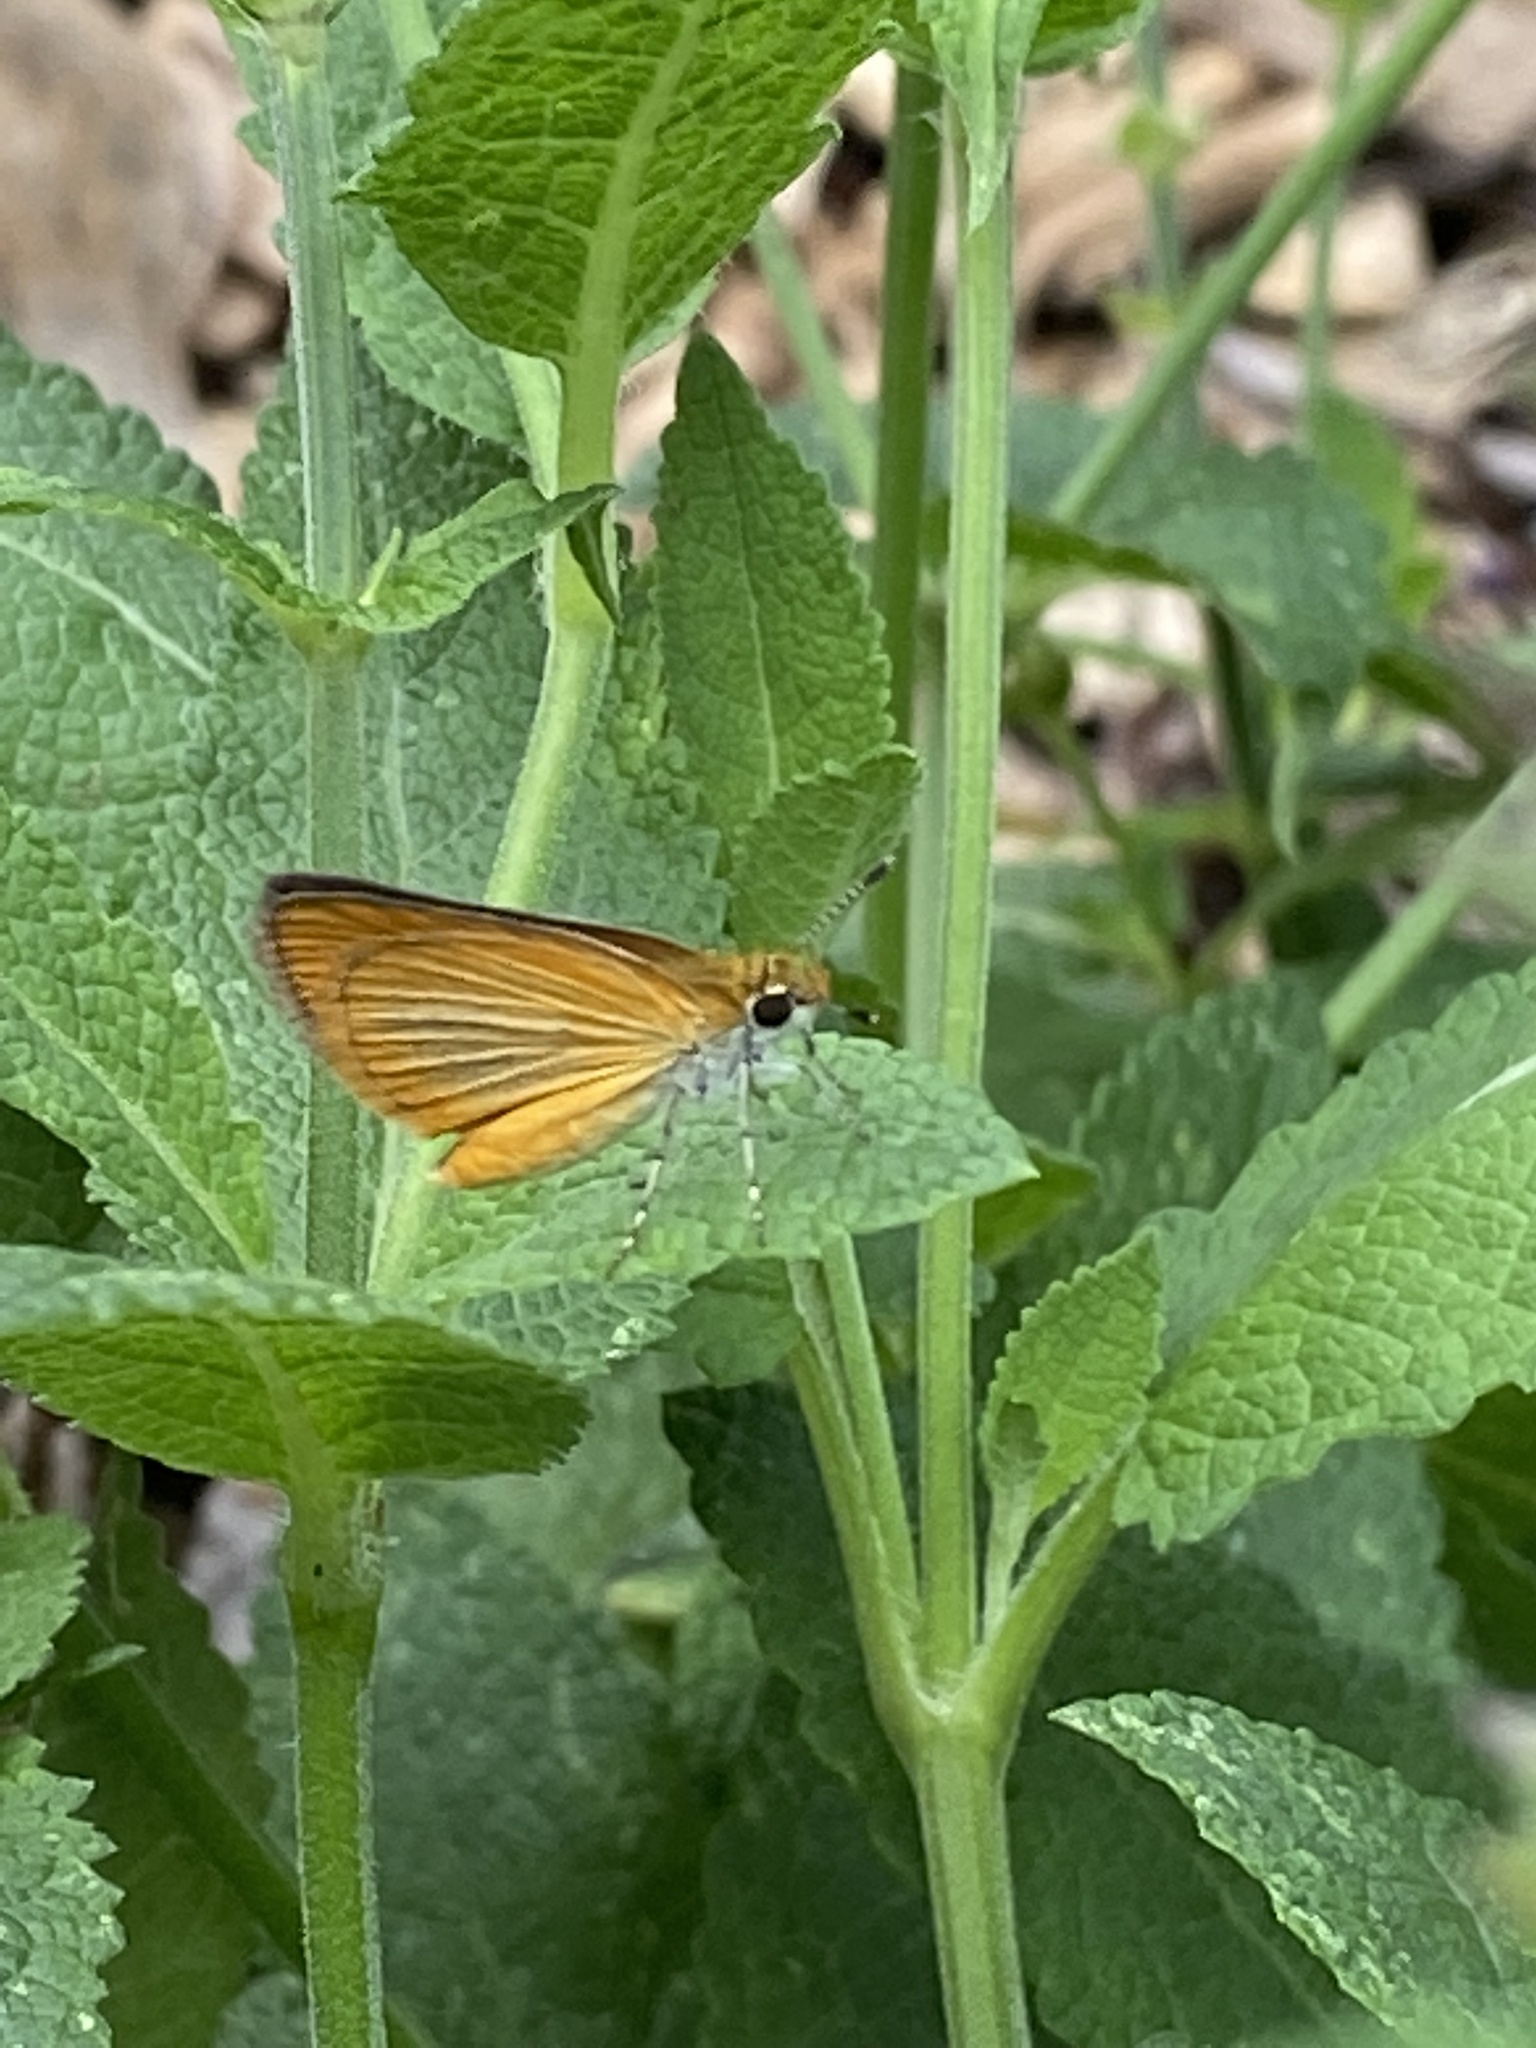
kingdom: Animalia
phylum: Arthropoda
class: Insecta
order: Lepidoptera
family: Hesperiidae
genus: Ancyloxypha
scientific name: Ancyloxypha numitor
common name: Least skipper
